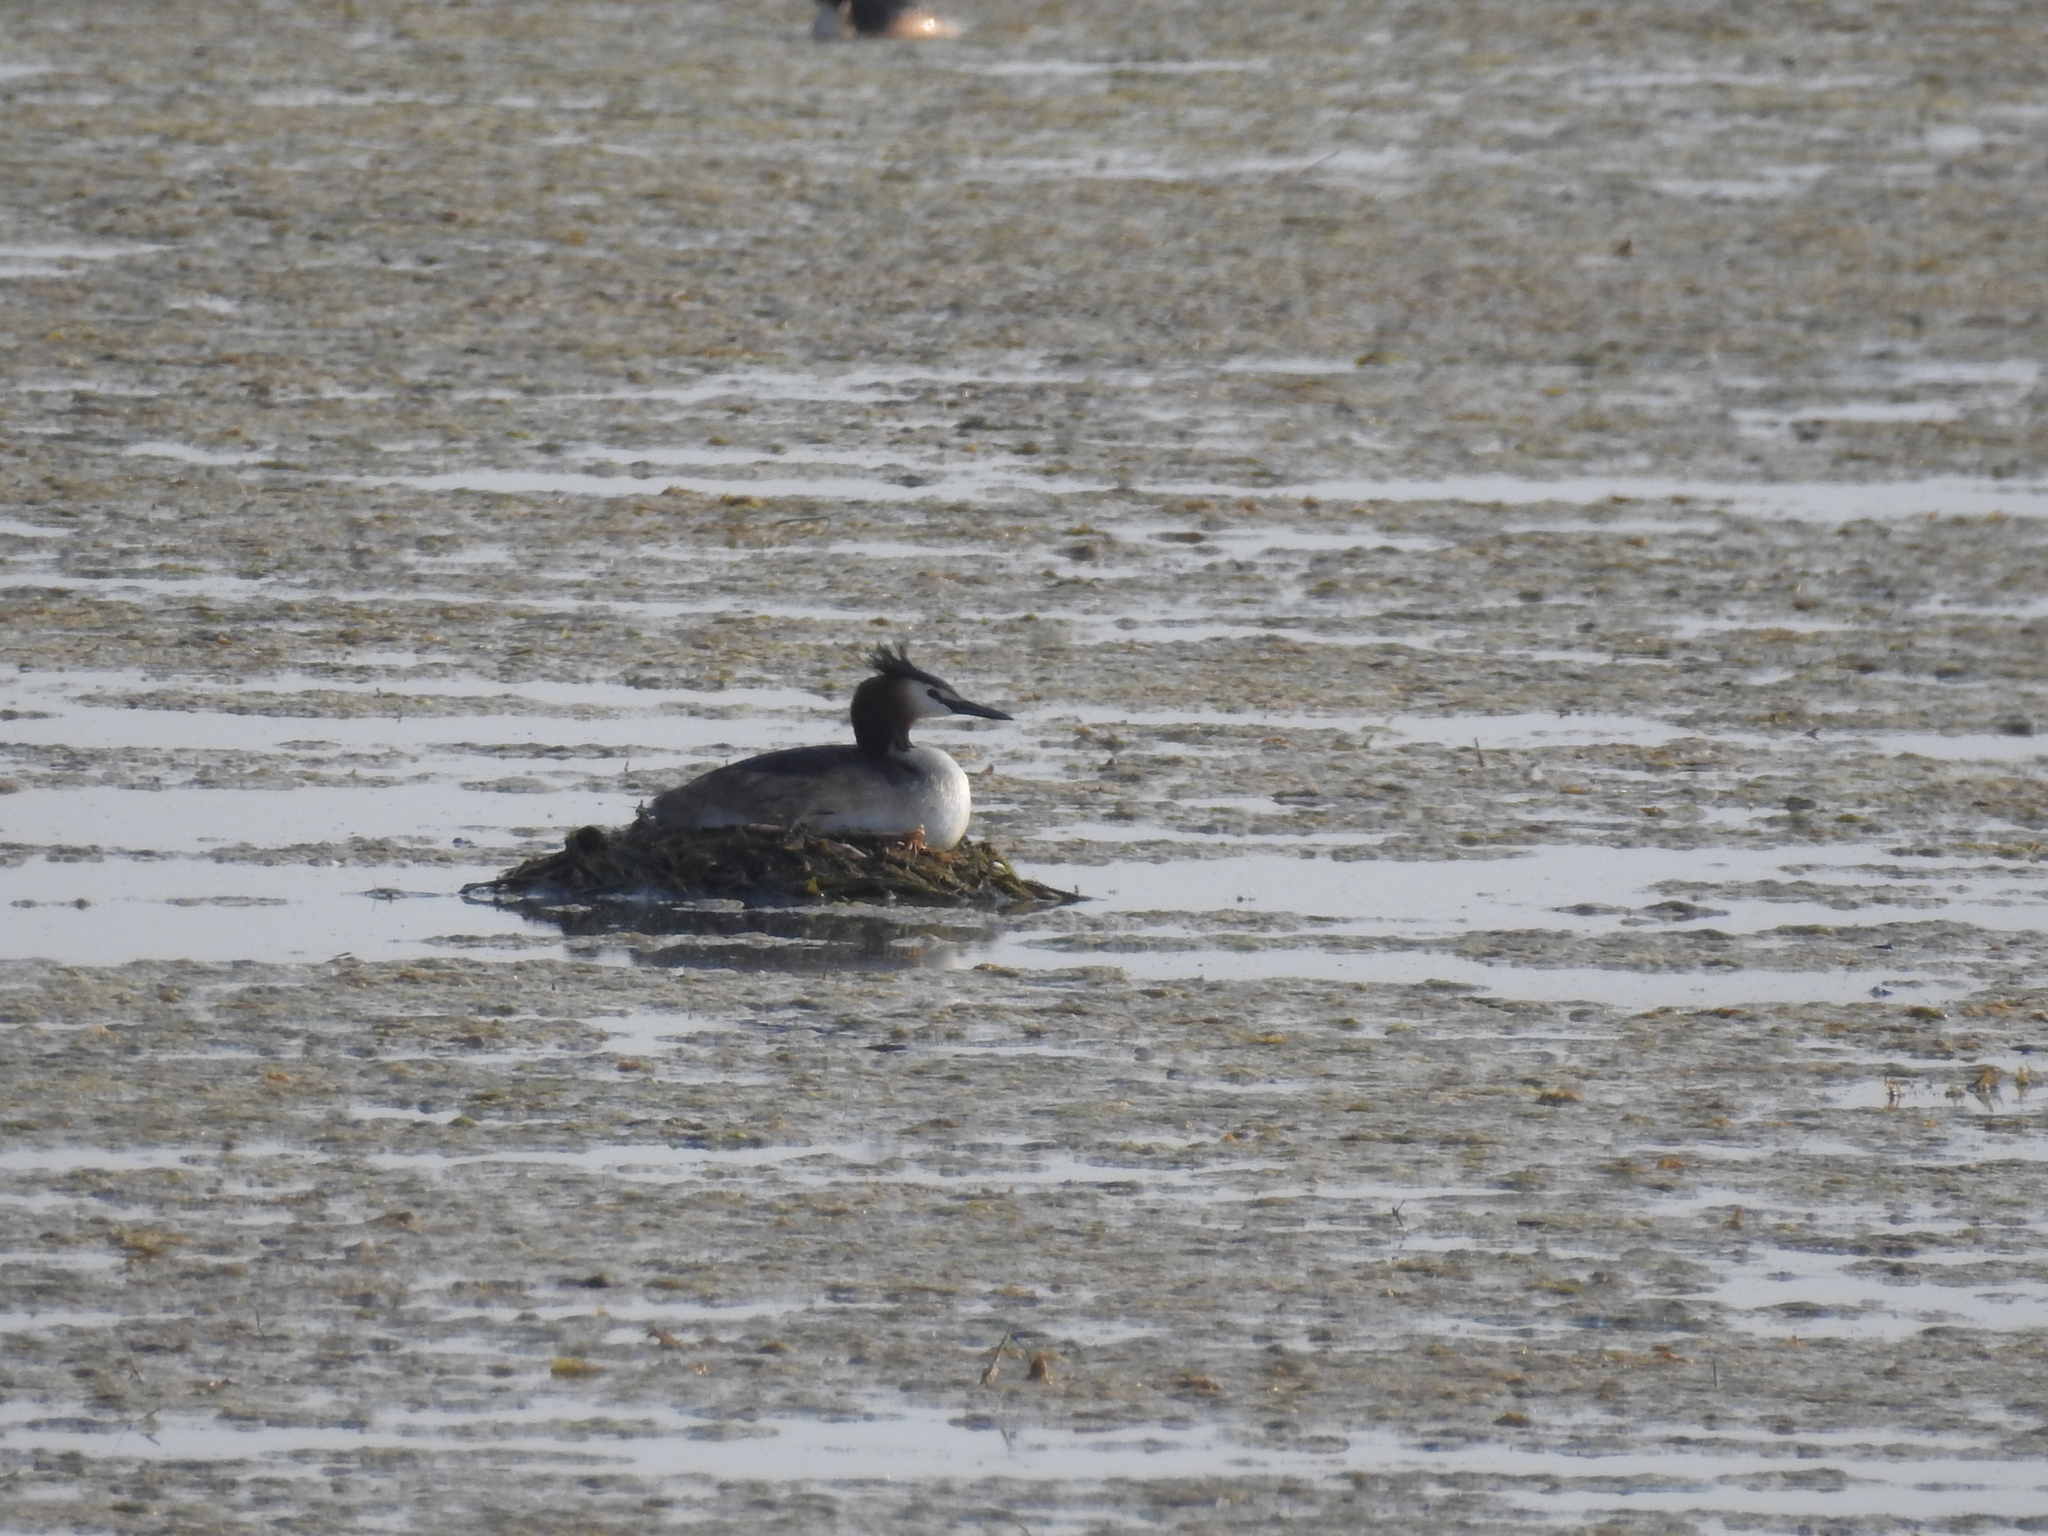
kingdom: Animalia
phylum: Chordata
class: Aves
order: Podicipediformes
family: Podicipedidae
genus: Podiceps
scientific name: Podiceps cristatus
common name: Great crested grebe
